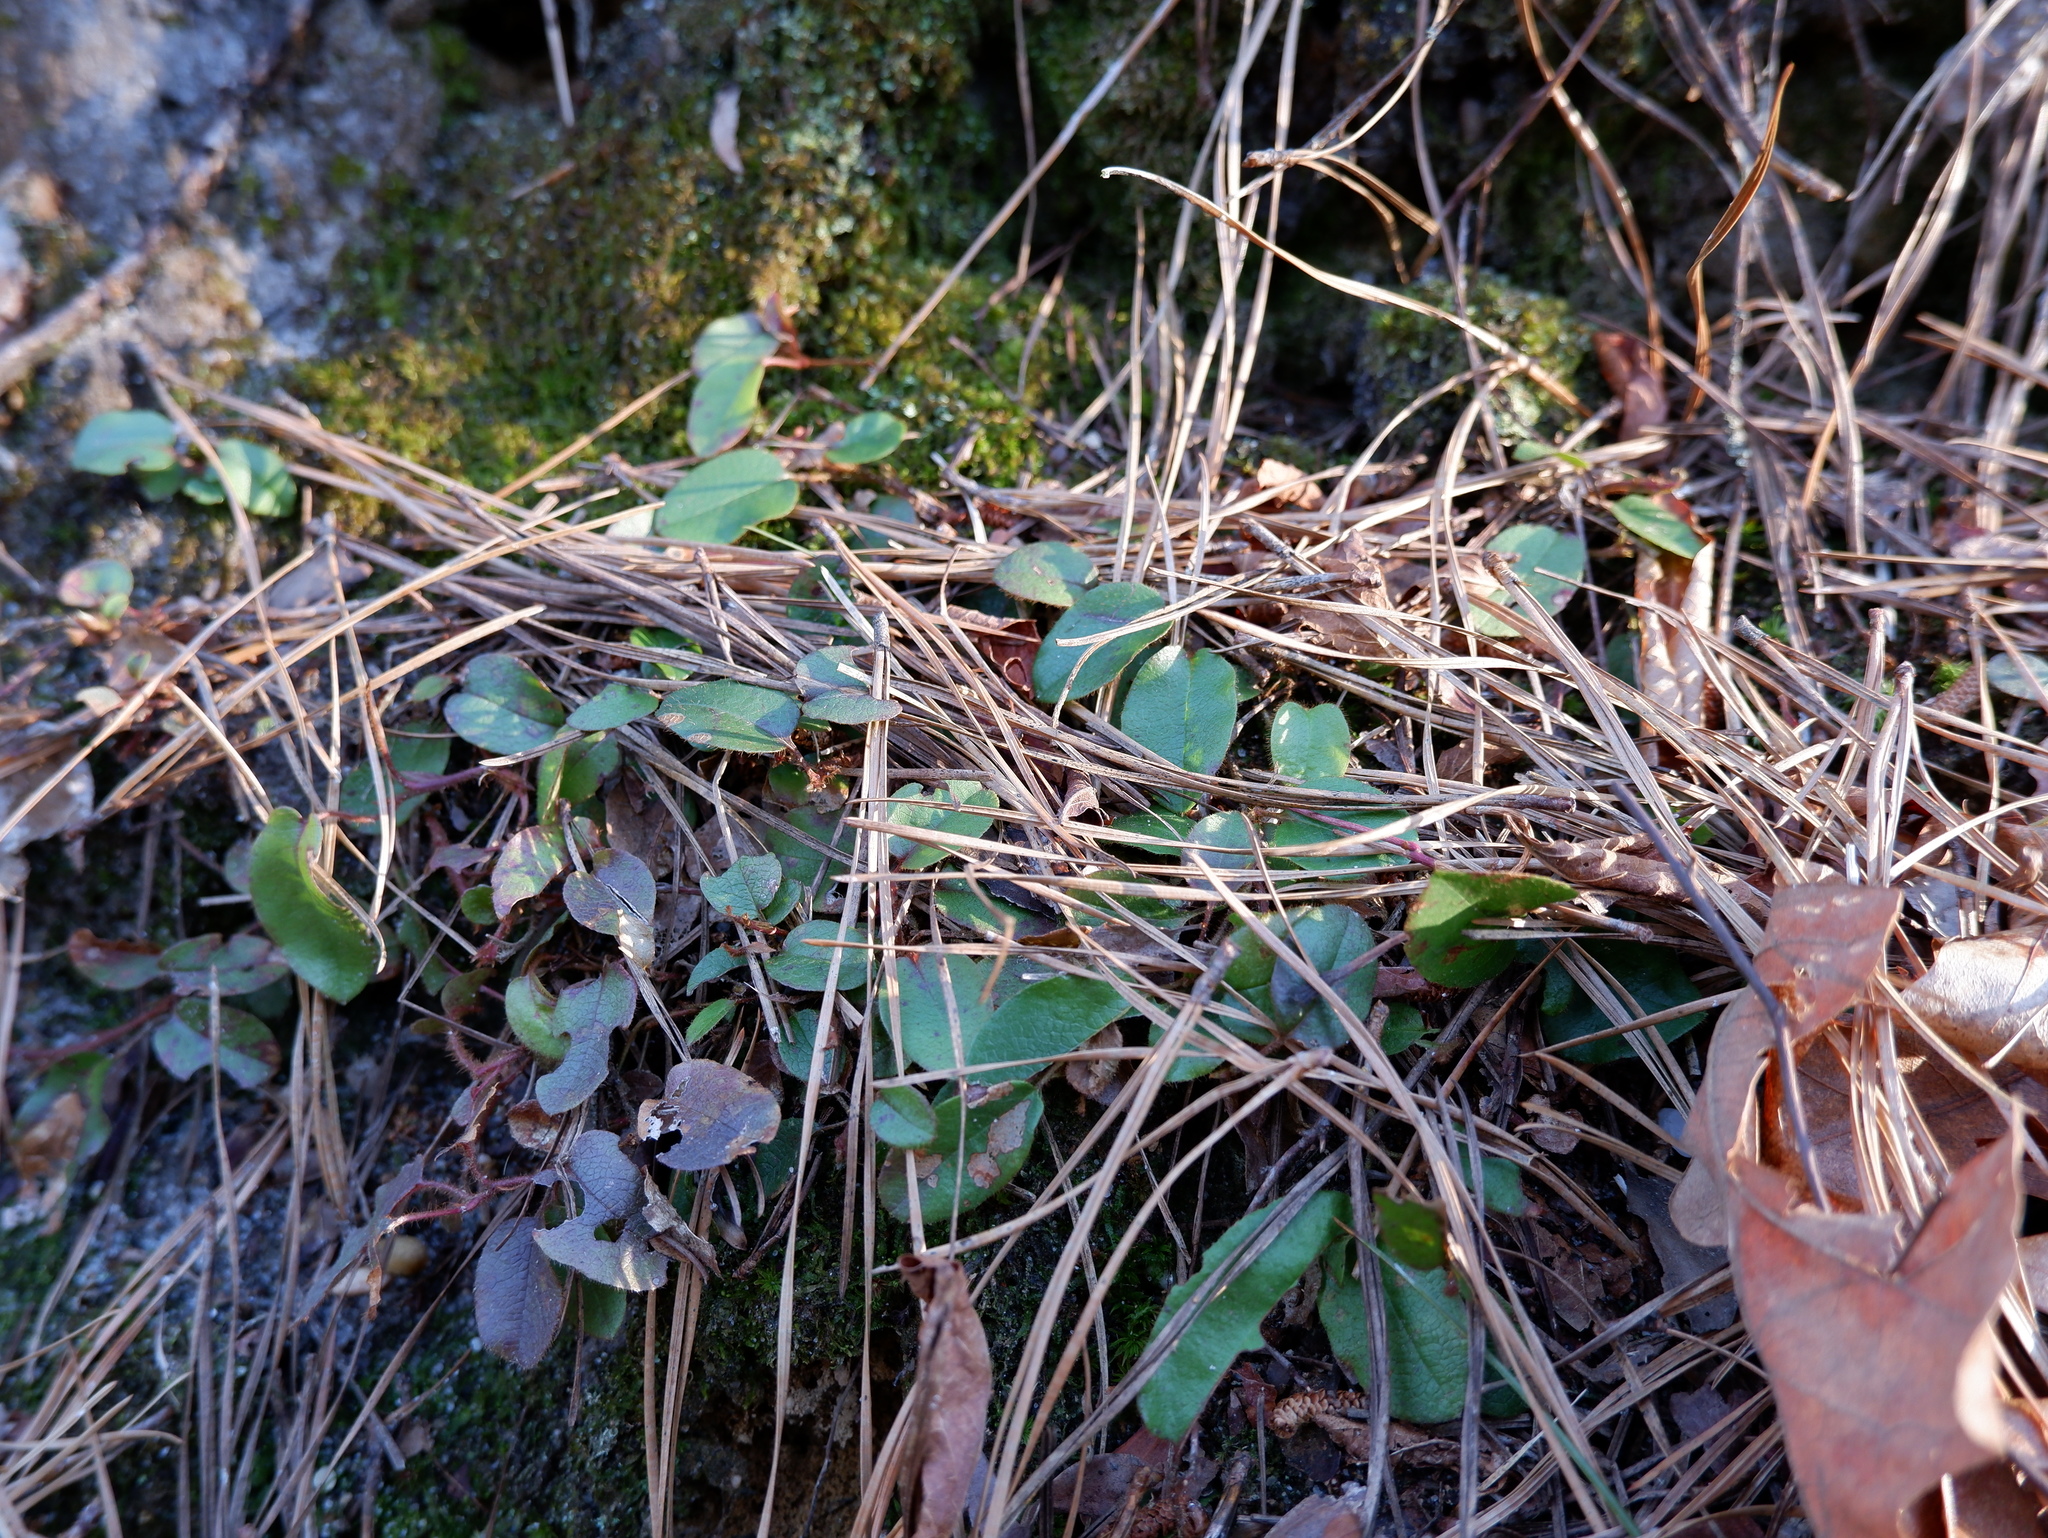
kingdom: Plantae
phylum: Tracheophyta
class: Magnoliopsida
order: Ericales
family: Ericaceae
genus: Epigaea
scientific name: Epigaea repens
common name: Gravelroot
